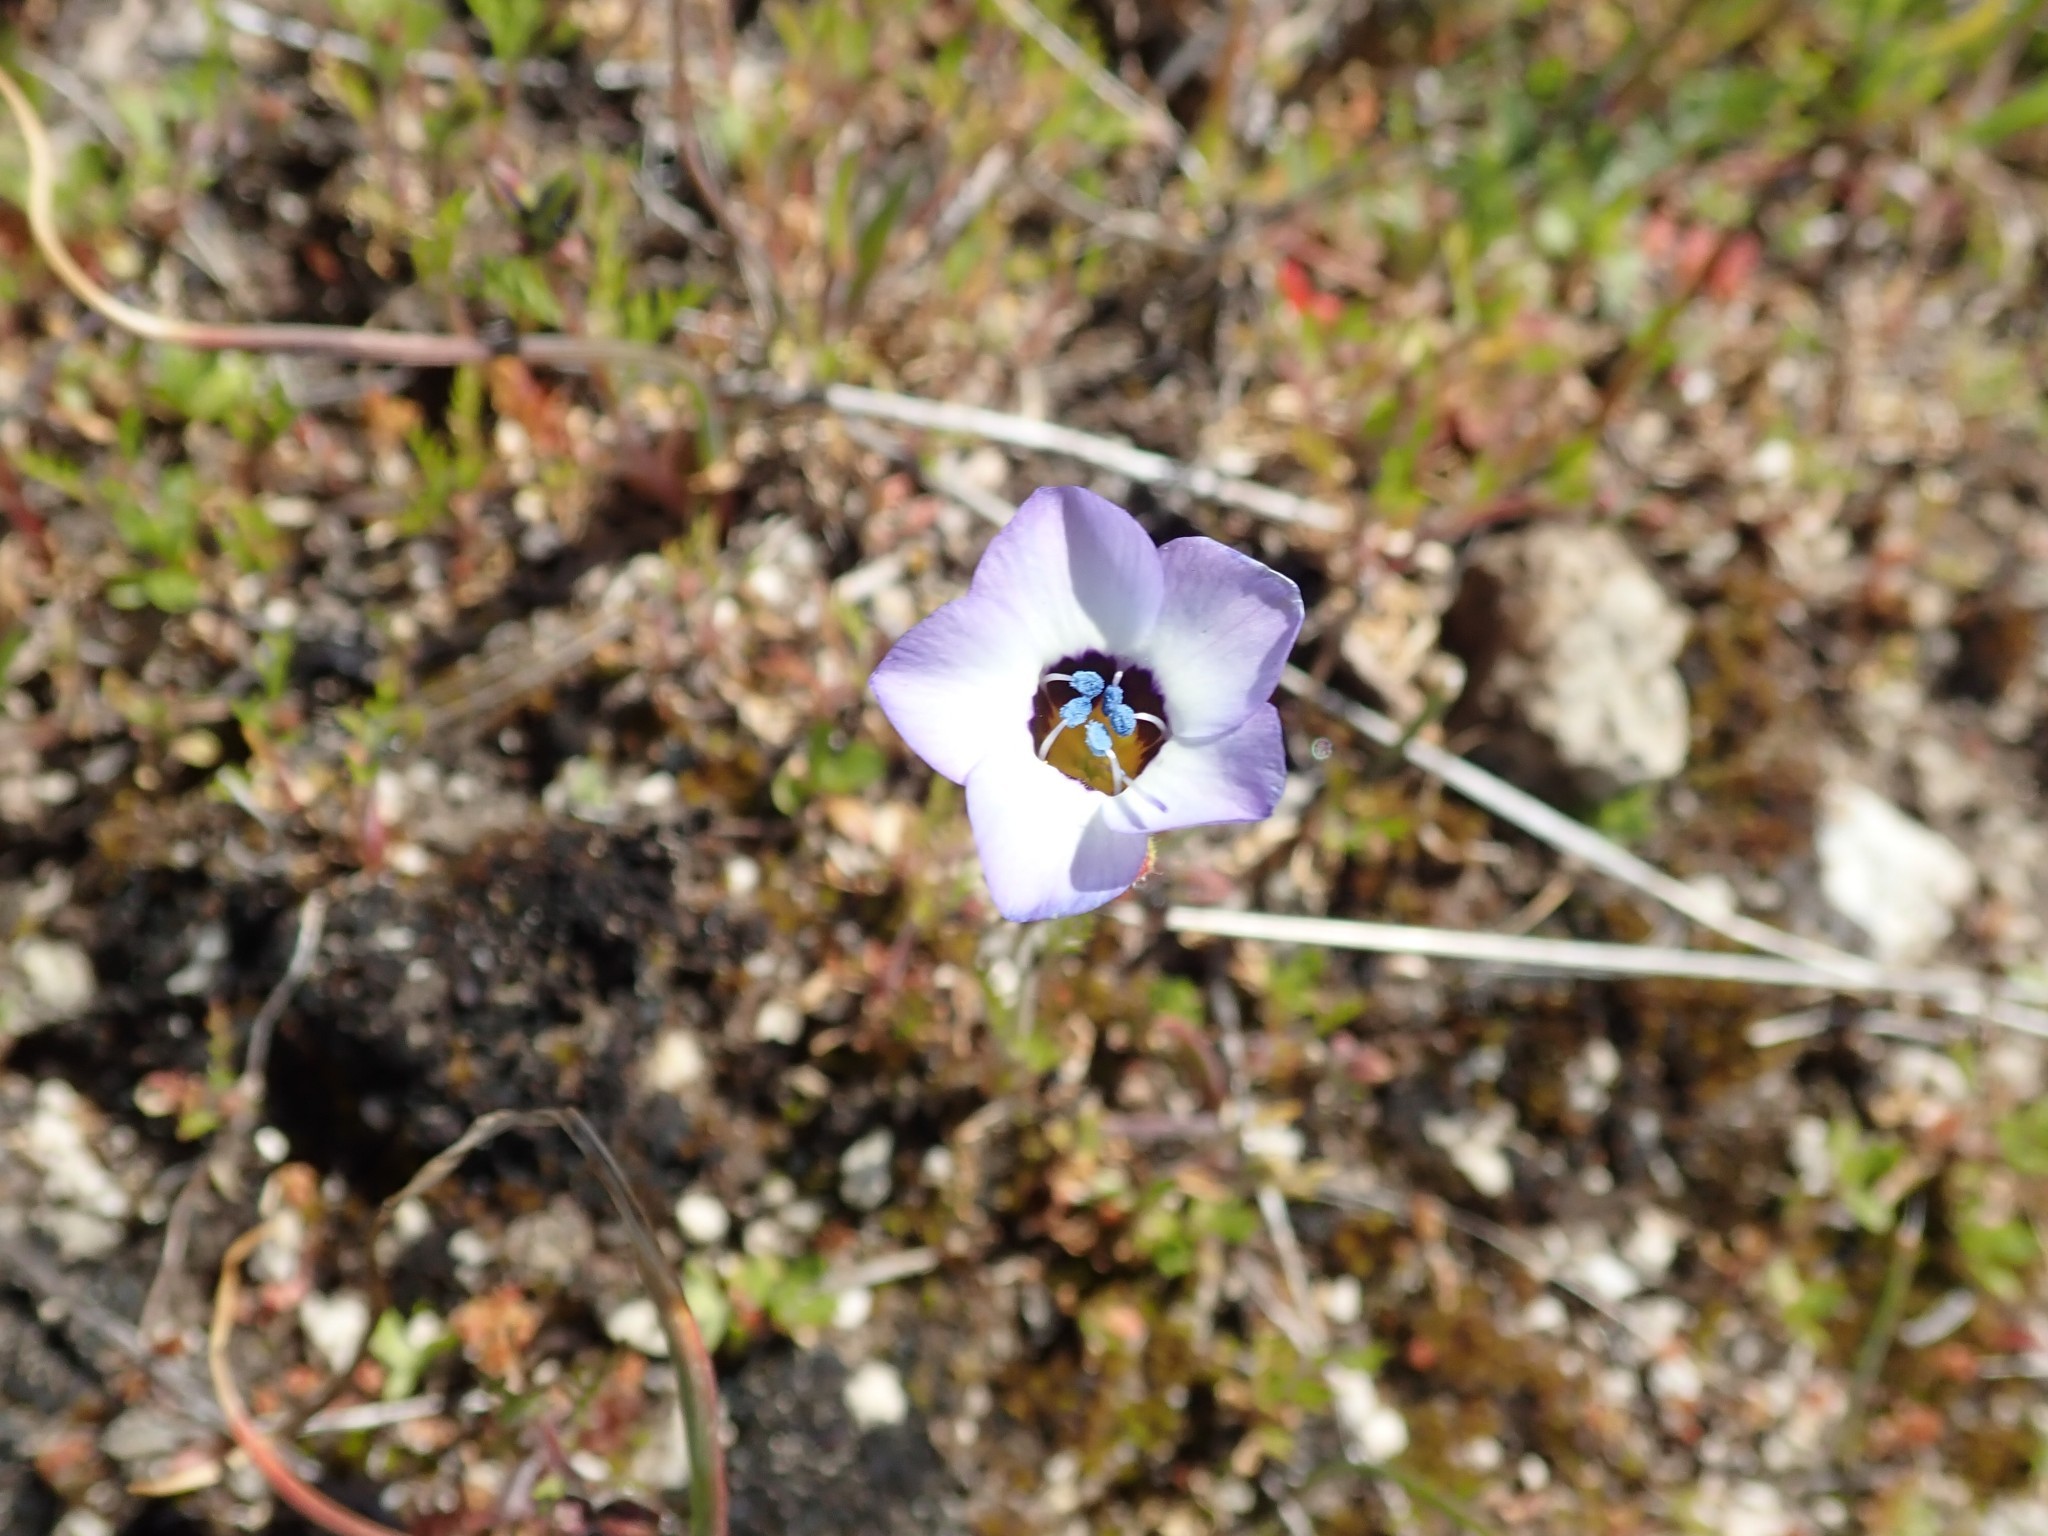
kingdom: Plantae
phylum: Tracheophyta
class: Magnoliopsida
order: Ericales
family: Polemoniaceae
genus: Gilia
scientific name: Gilia tricolor
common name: Bird's-eyes
